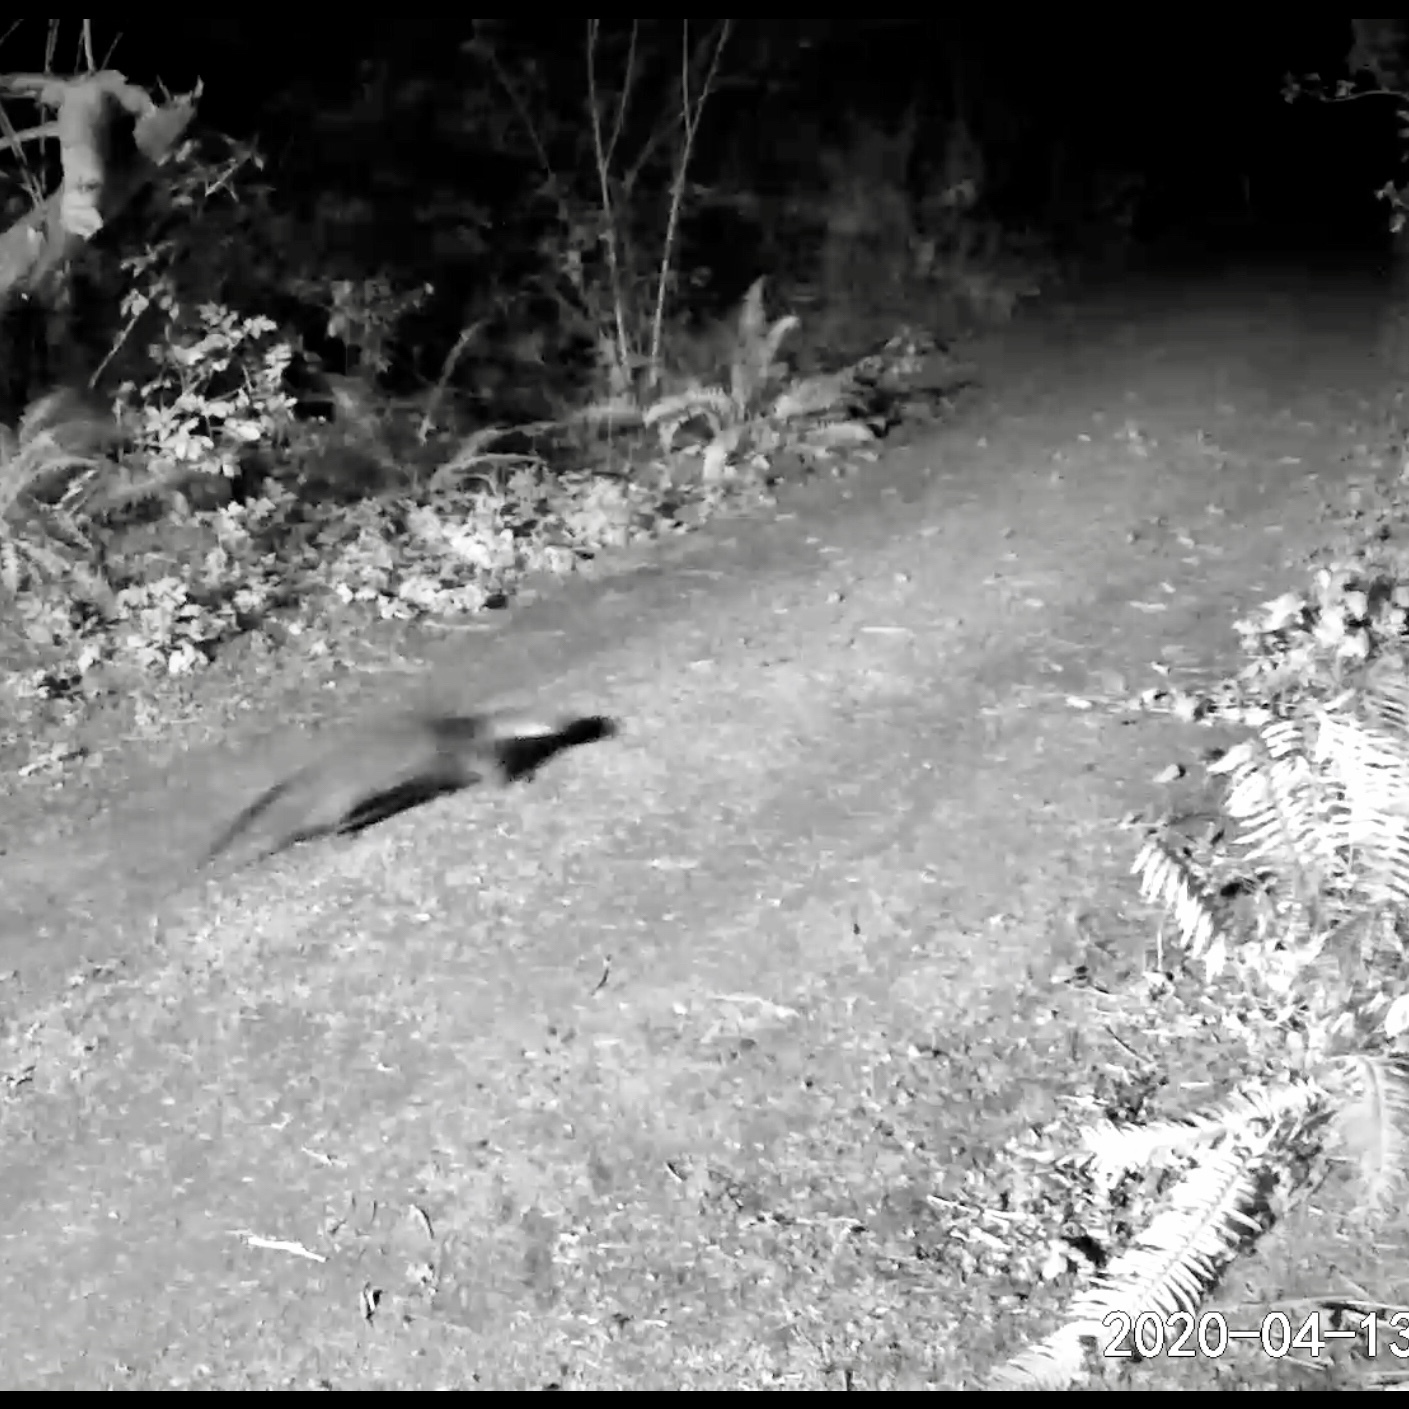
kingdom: Animalia
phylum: Chordata
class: Mammalia
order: Carnivora
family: Mustelidae
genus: Lontra
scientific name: Lontra canadensis
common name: North american river otter
